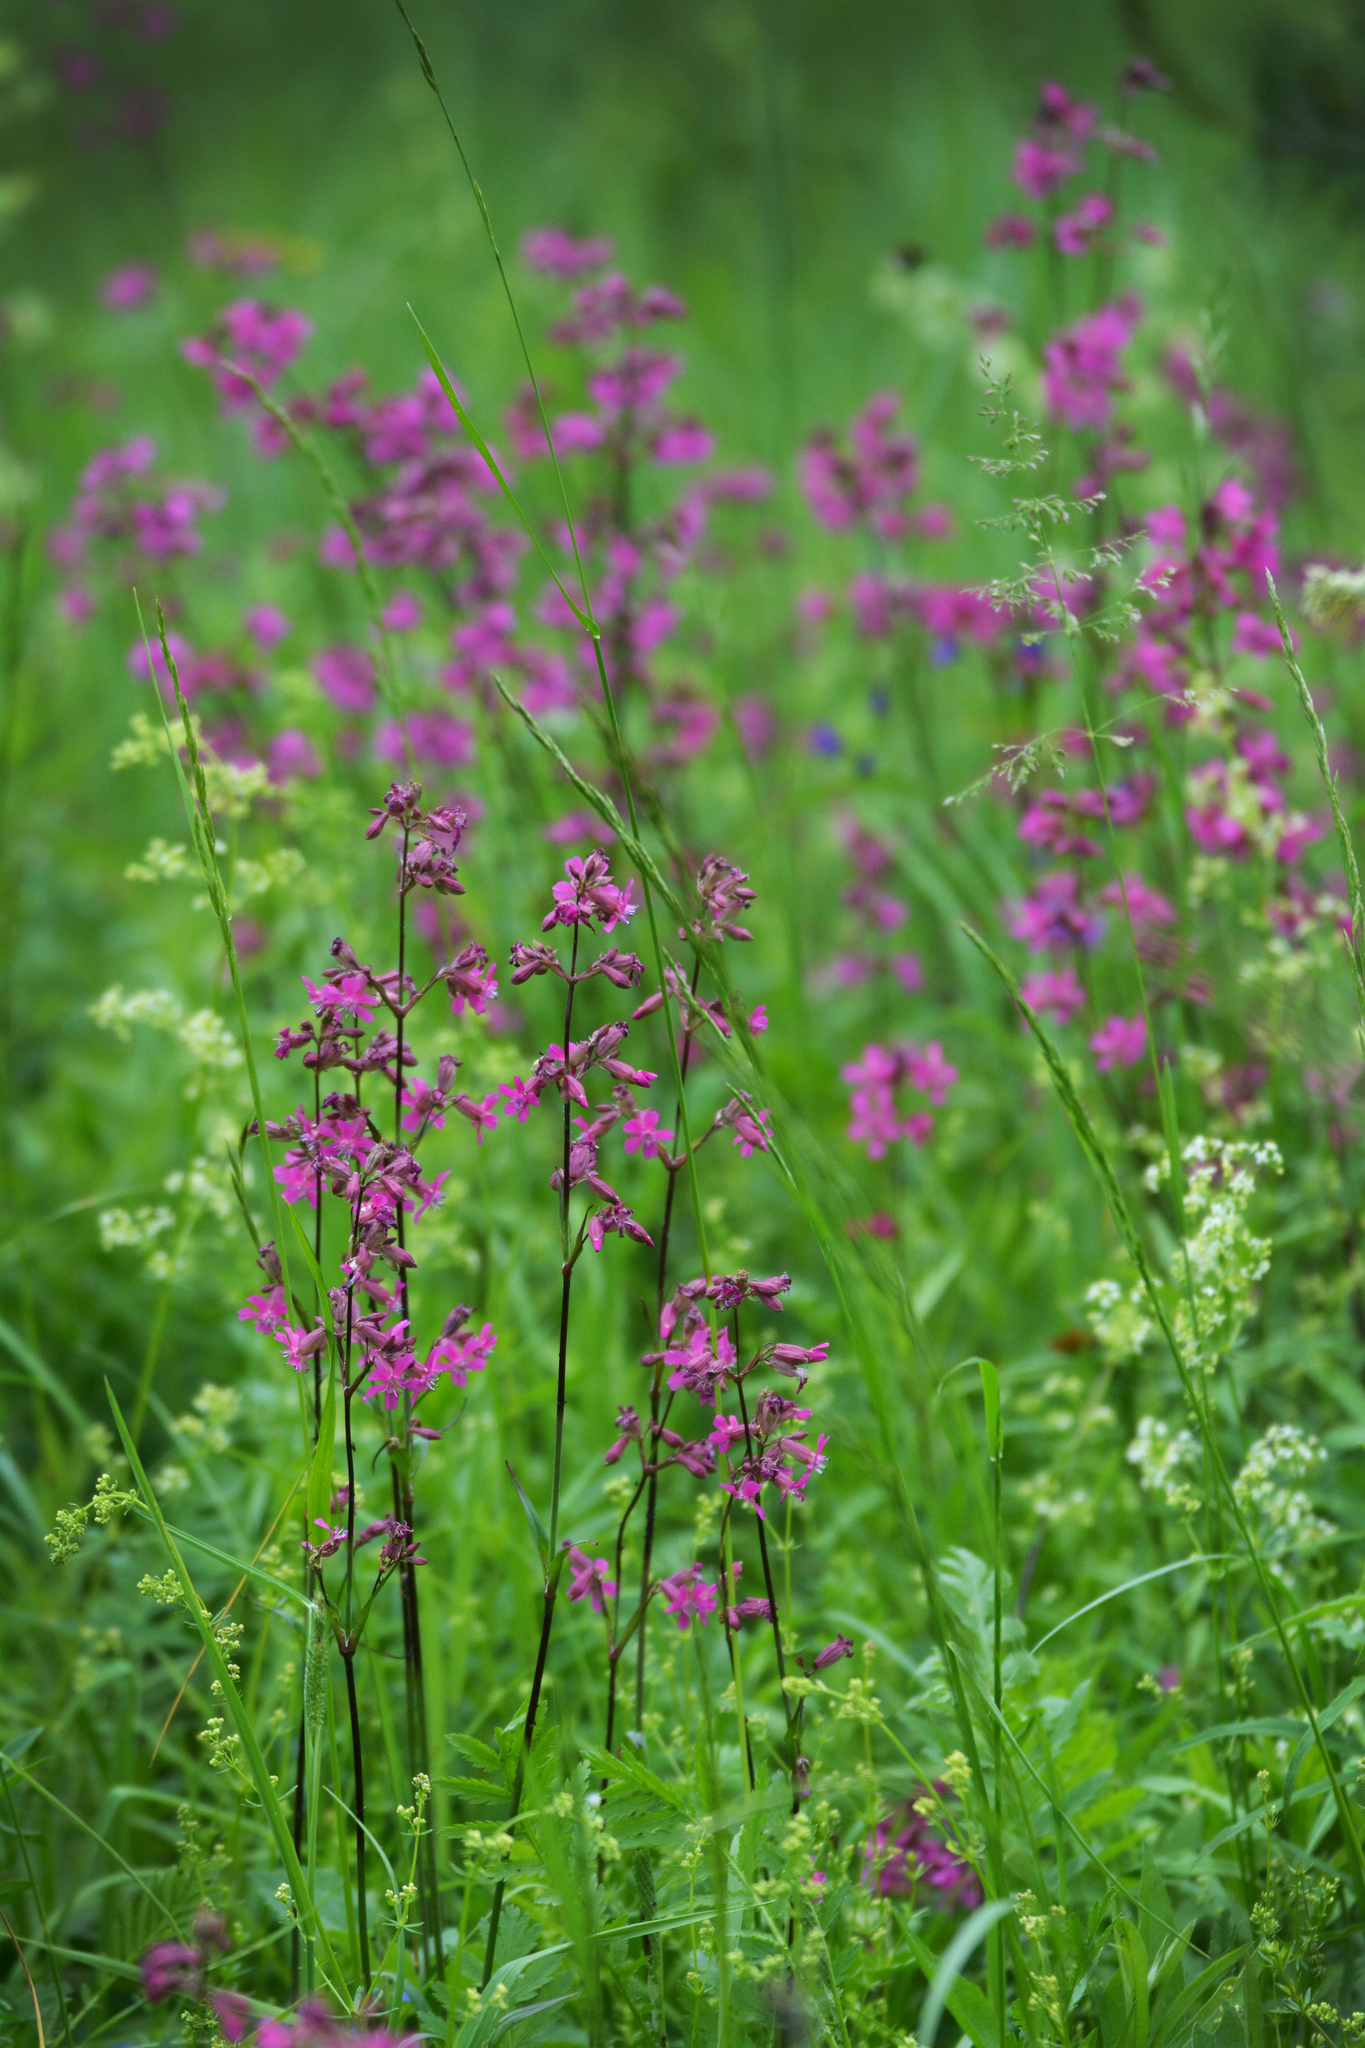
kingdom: Plantae
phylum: Tracheophyta
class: Magnoliopsida
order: Caryophyllales
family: Caryophyllaceae
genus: Viscaria
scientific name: Viscaria vulgaris
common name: Clammy campion
